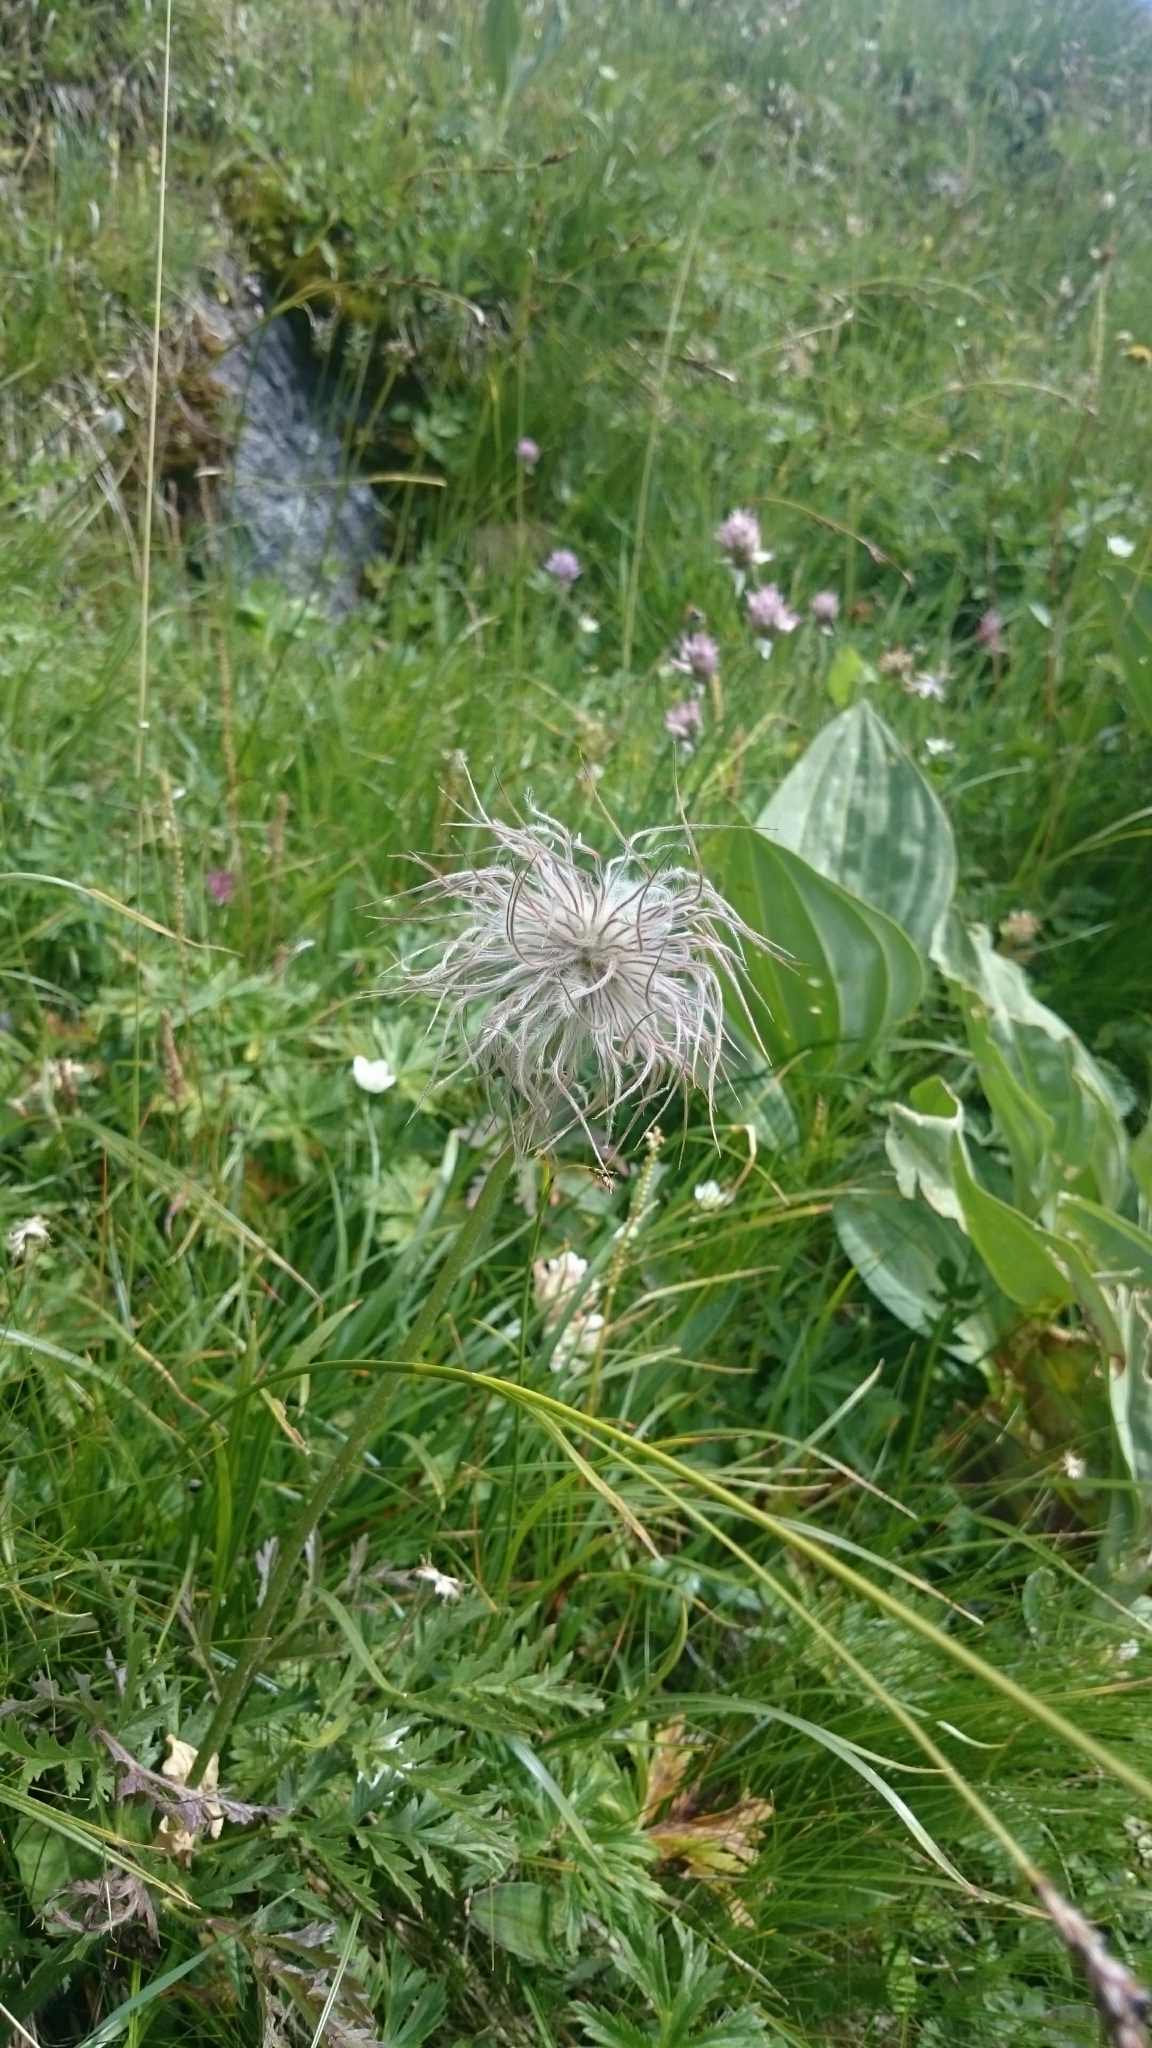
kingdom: Plantae
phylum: Tracheophyta
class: Magnoliopsida
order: Ranunculales
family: Ranunculaceae
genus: Pulsatilla
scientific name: Pulsatilla alpina
